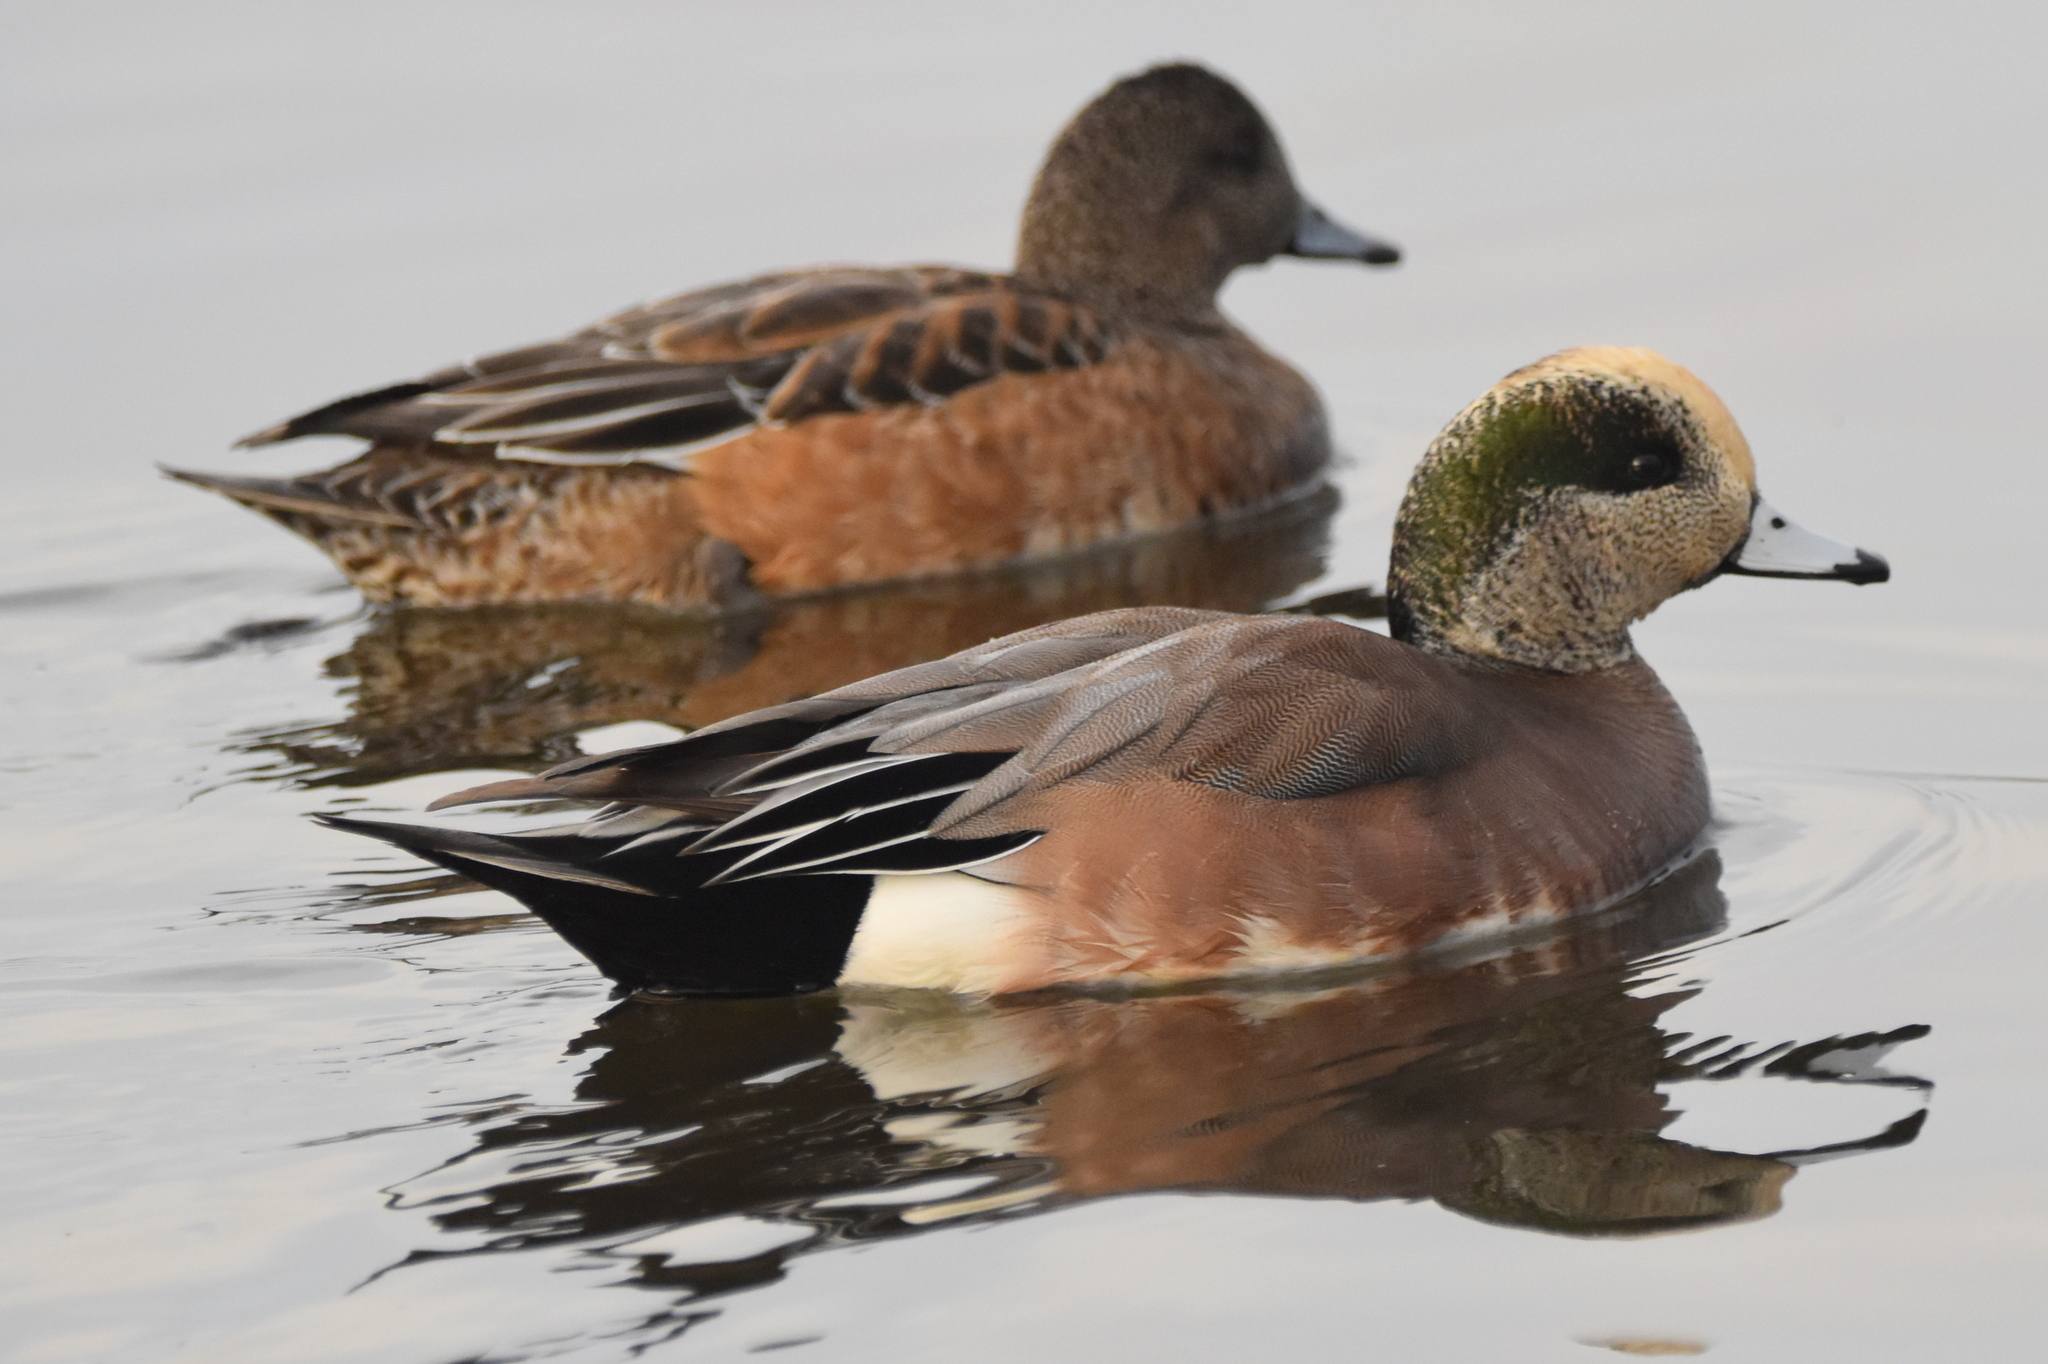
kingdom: Animalia
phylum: Chordata
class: Aves
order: Anseriformes
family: Anatidae
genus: Mareca
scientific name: Mareca americana
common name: American wigeon
